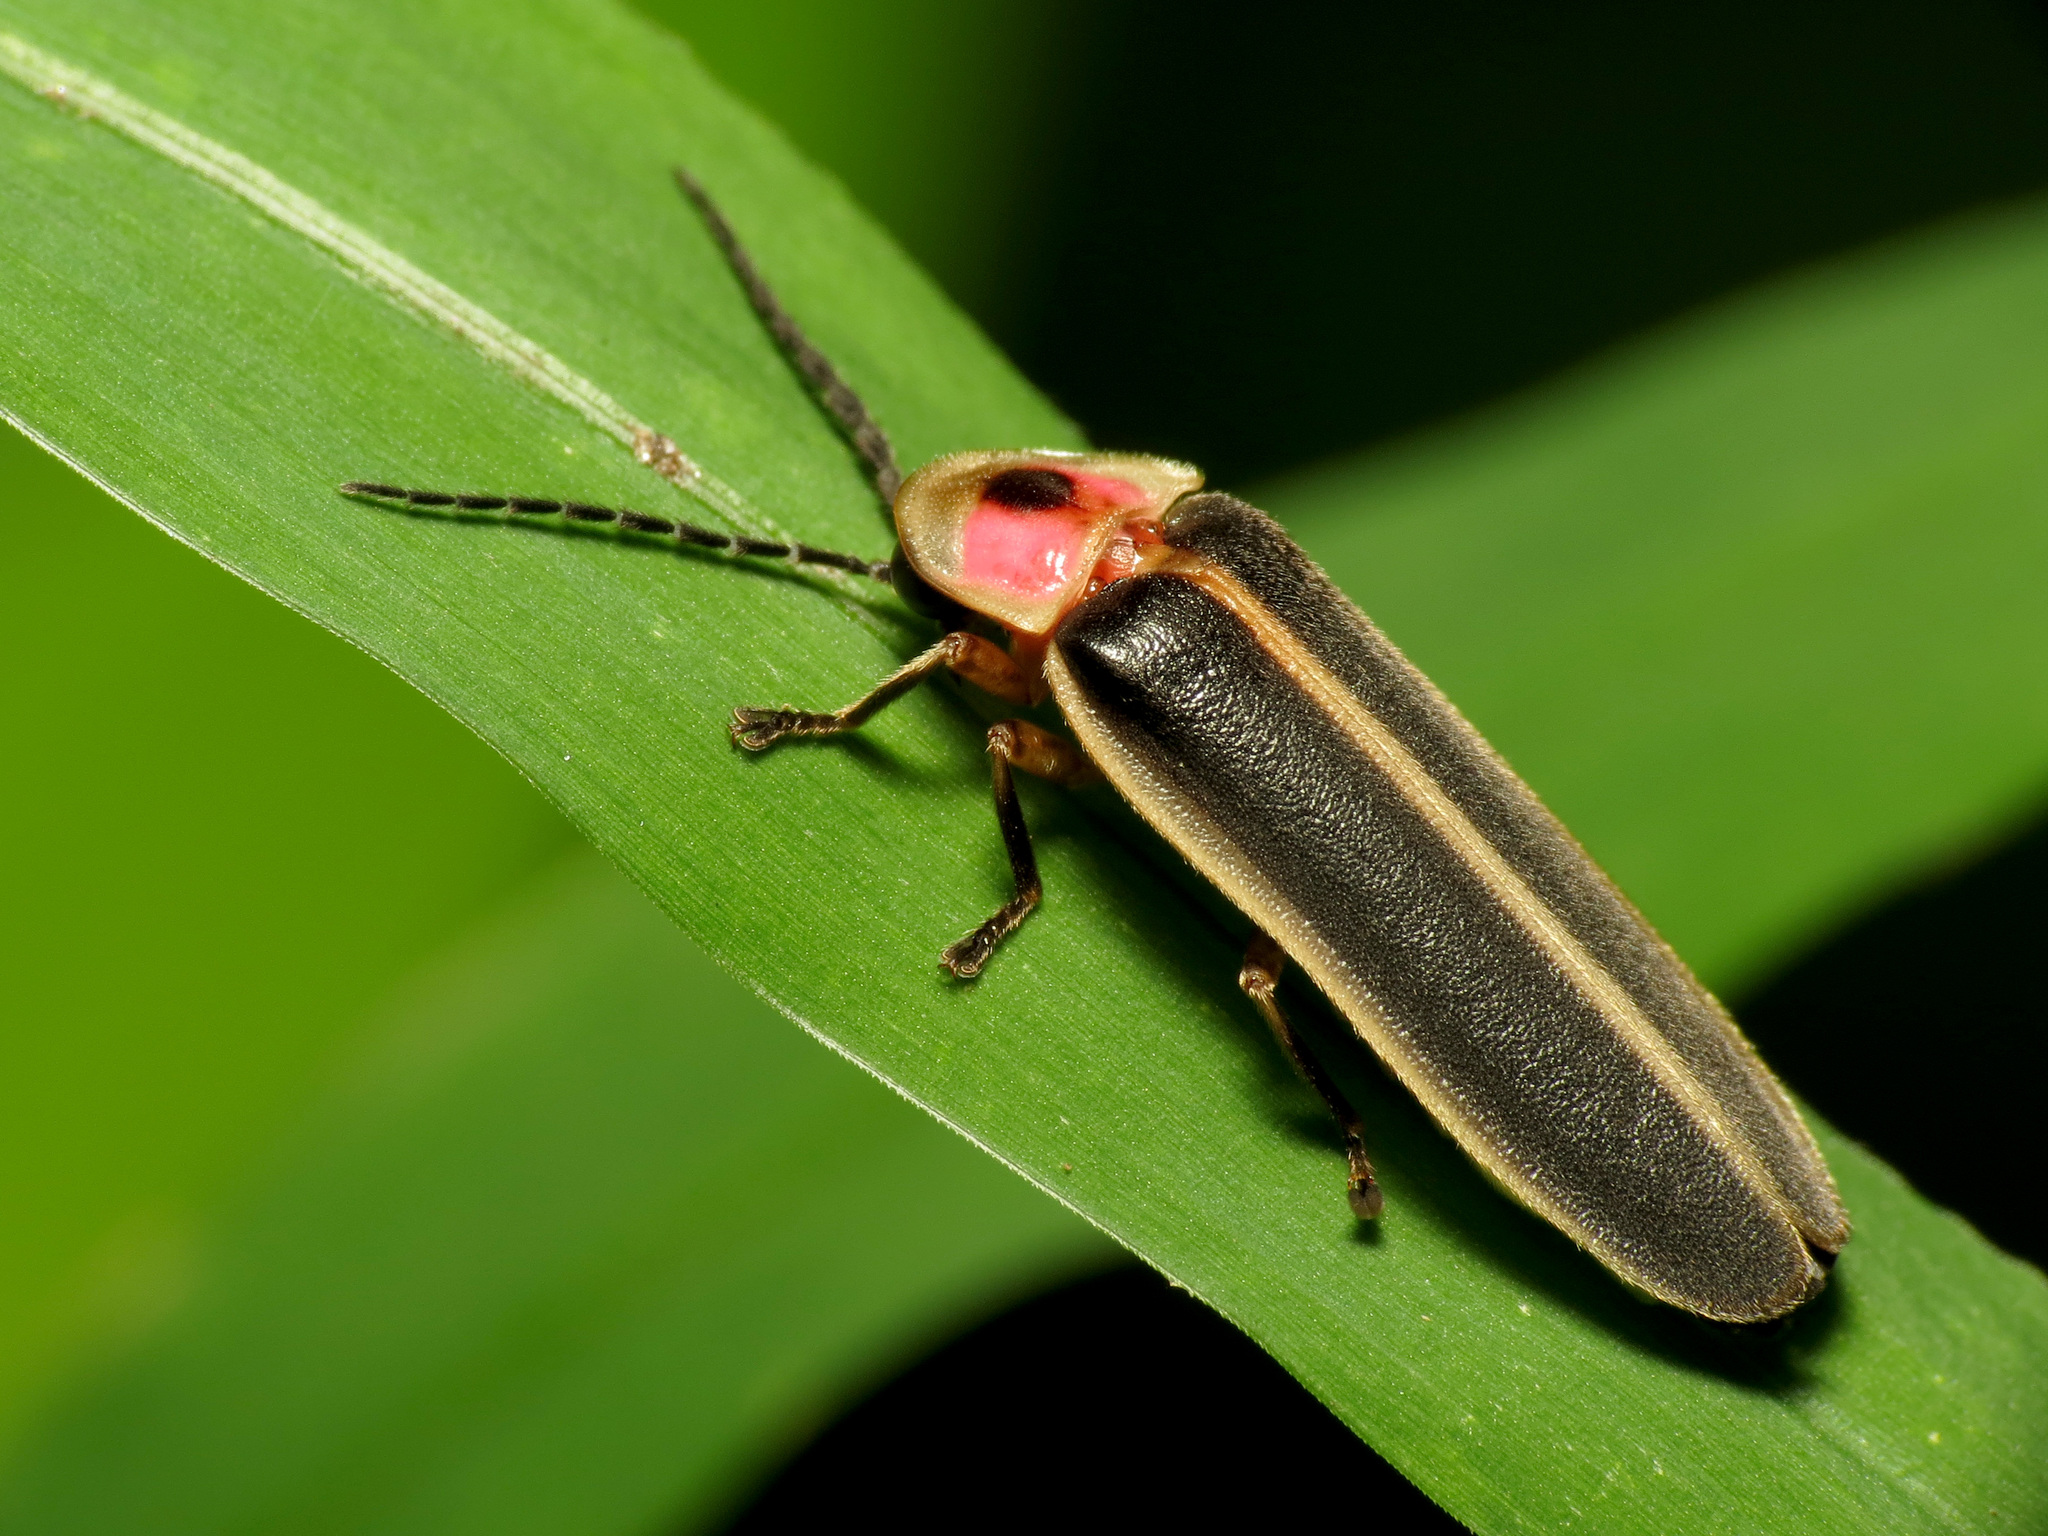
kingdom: Animalia
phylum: Arthropoda
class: Insecta
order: Coleoptera
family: Lampyridae
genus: Photinus
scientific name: Photinus pyralis
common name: Big dipper firefly
